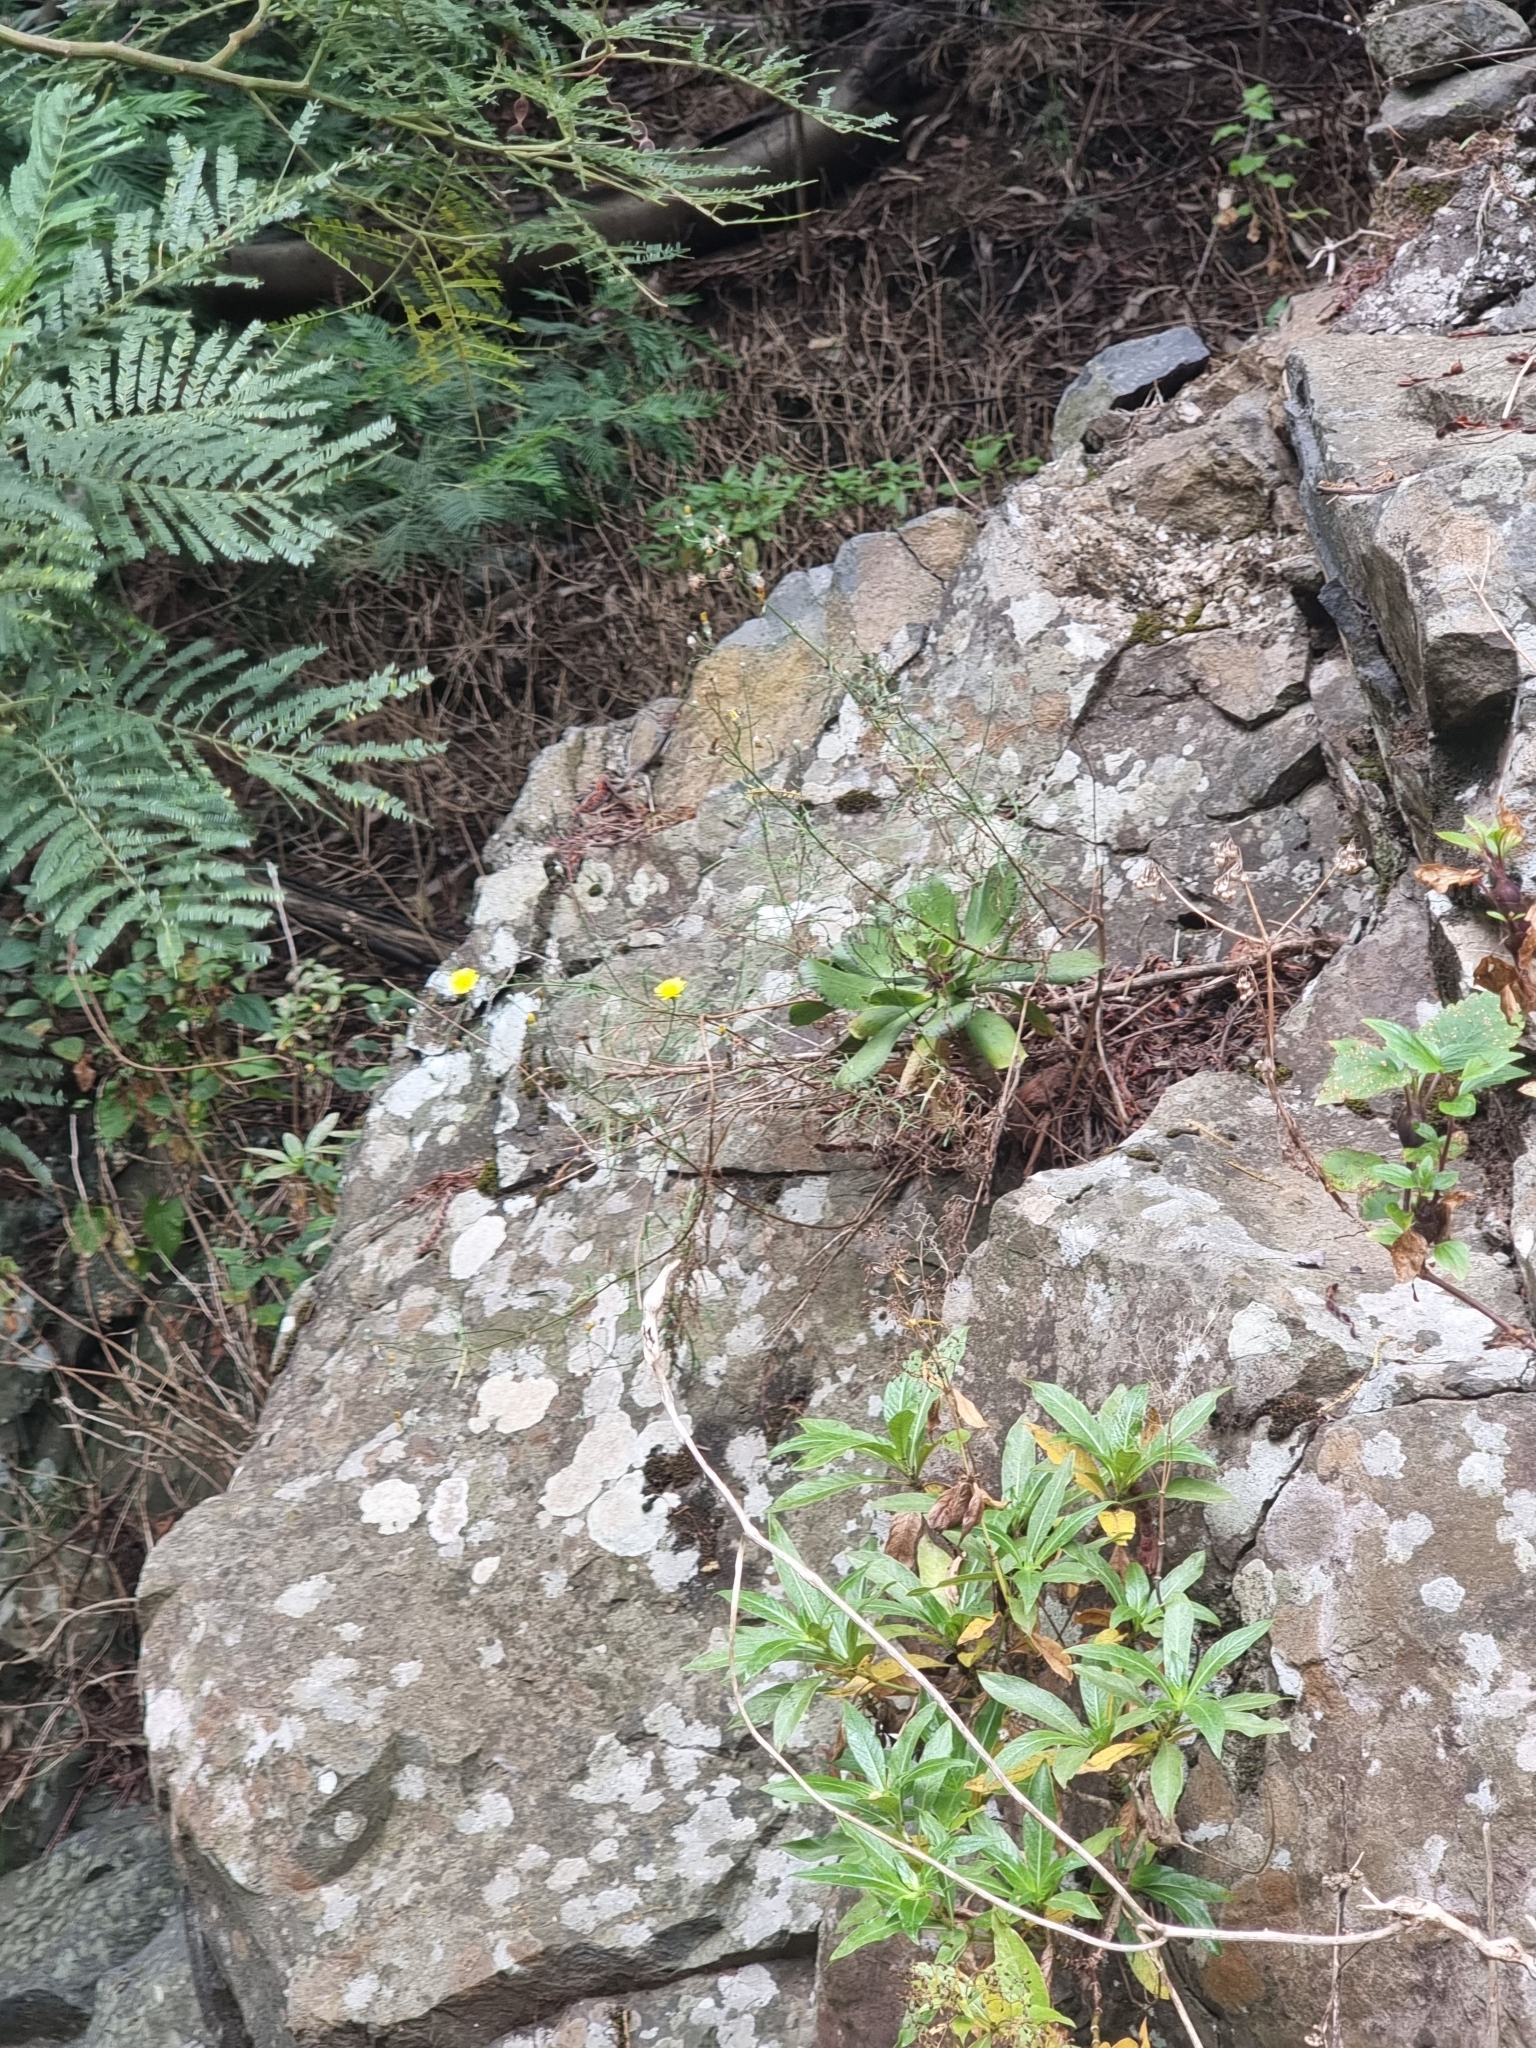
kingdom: Plantae
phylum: Tracheophyta
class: Magnoliopsida
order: Saxifragales
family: Crassulaceae
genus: Aeonium
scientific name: Aeonium glutinosum
